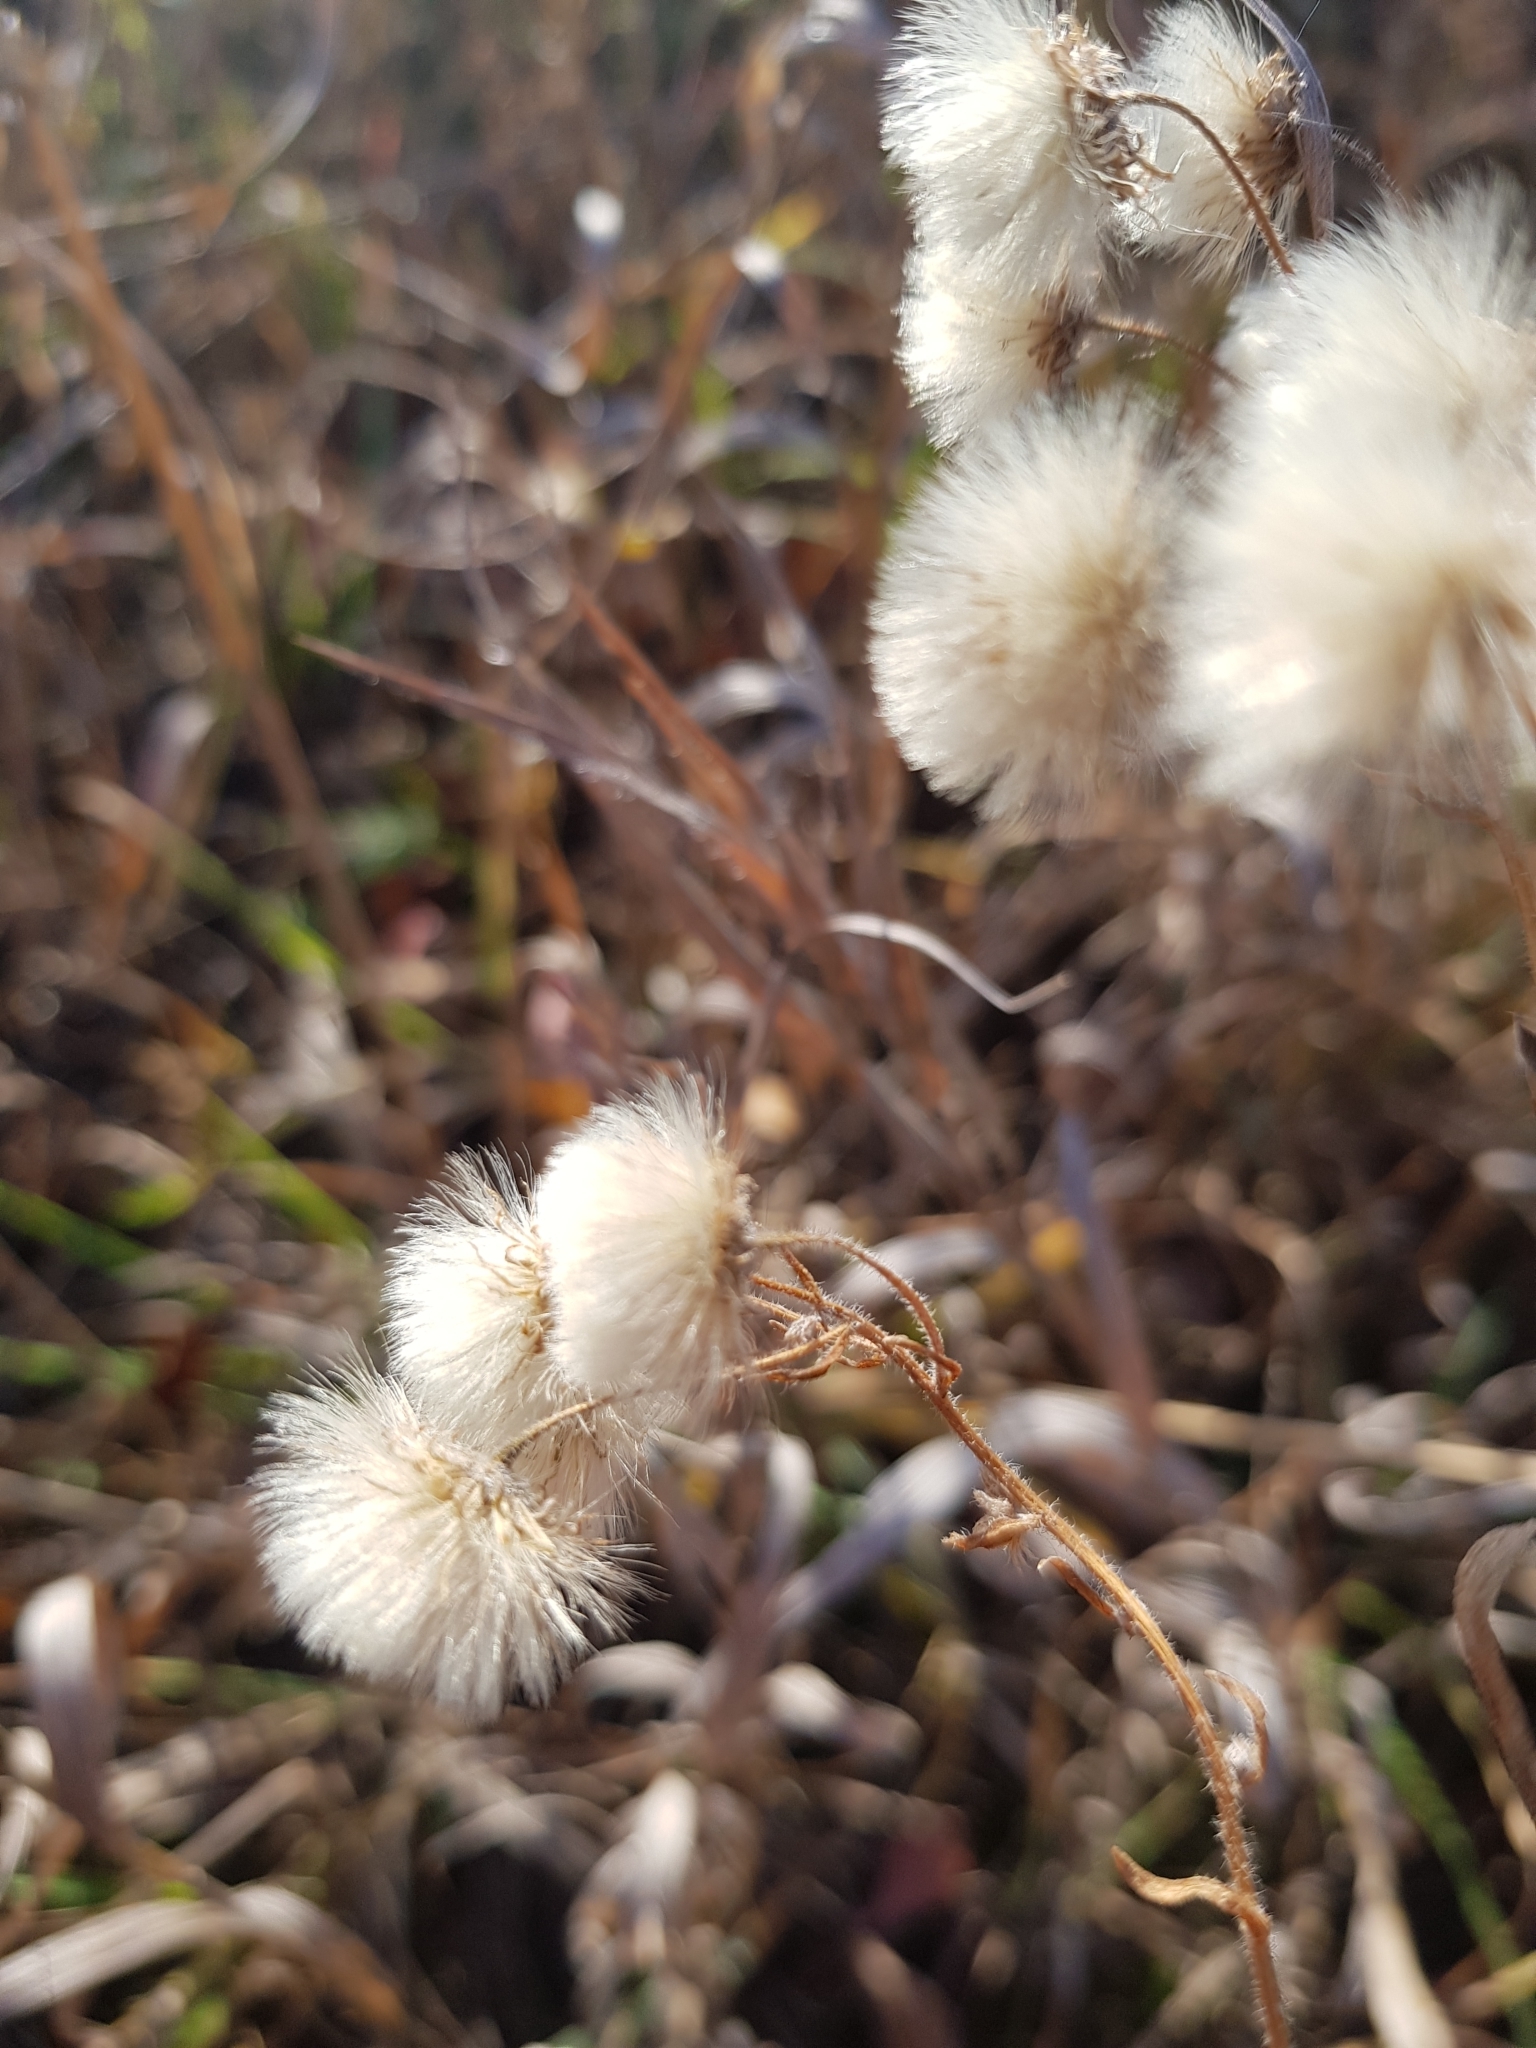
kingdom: Plantae
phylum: Tracheophyta
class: Magnoliopsida
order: Asterales
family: Asteraceae
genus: Erigeron
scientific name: Erigeron acris
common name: Blue fleabane
